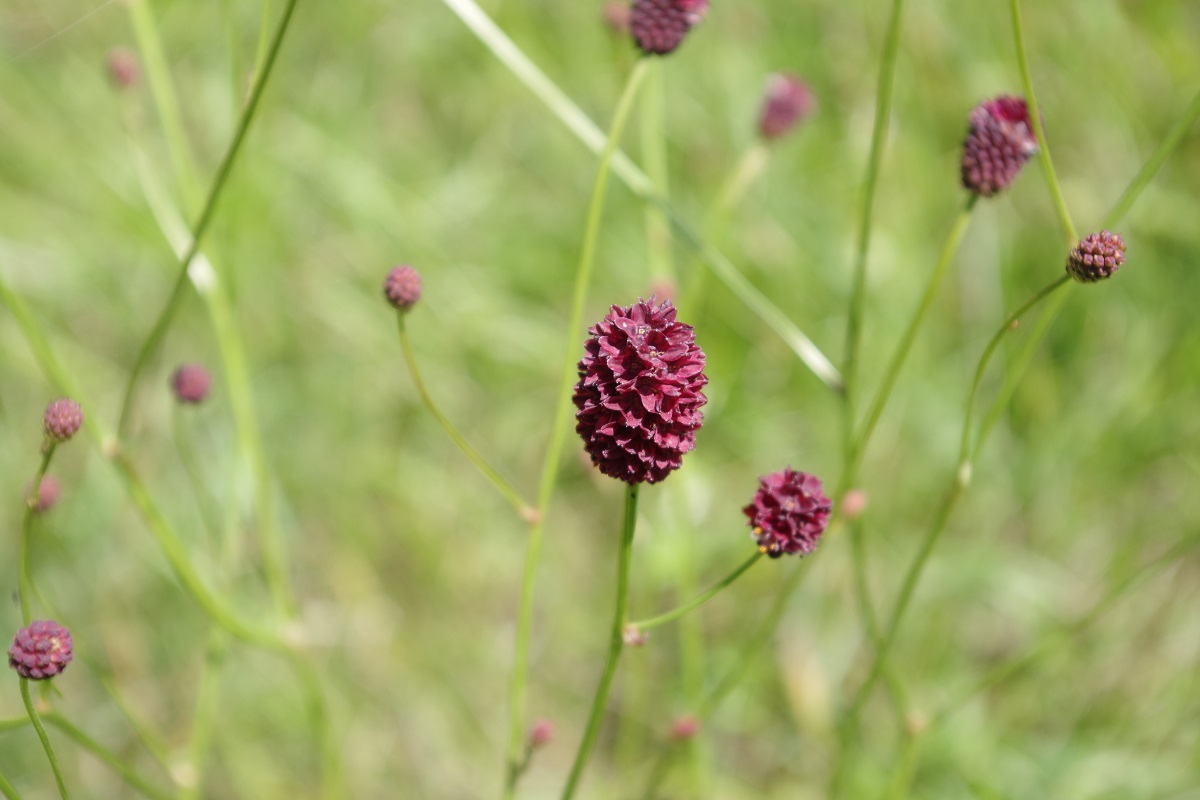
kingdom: Plantae
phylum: Tracheophyta
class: Magnoliopsida
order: Rosales
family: Rosaceae
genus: Sanguisorba
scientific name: Sanguisorba officinalis
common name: Great burnet
